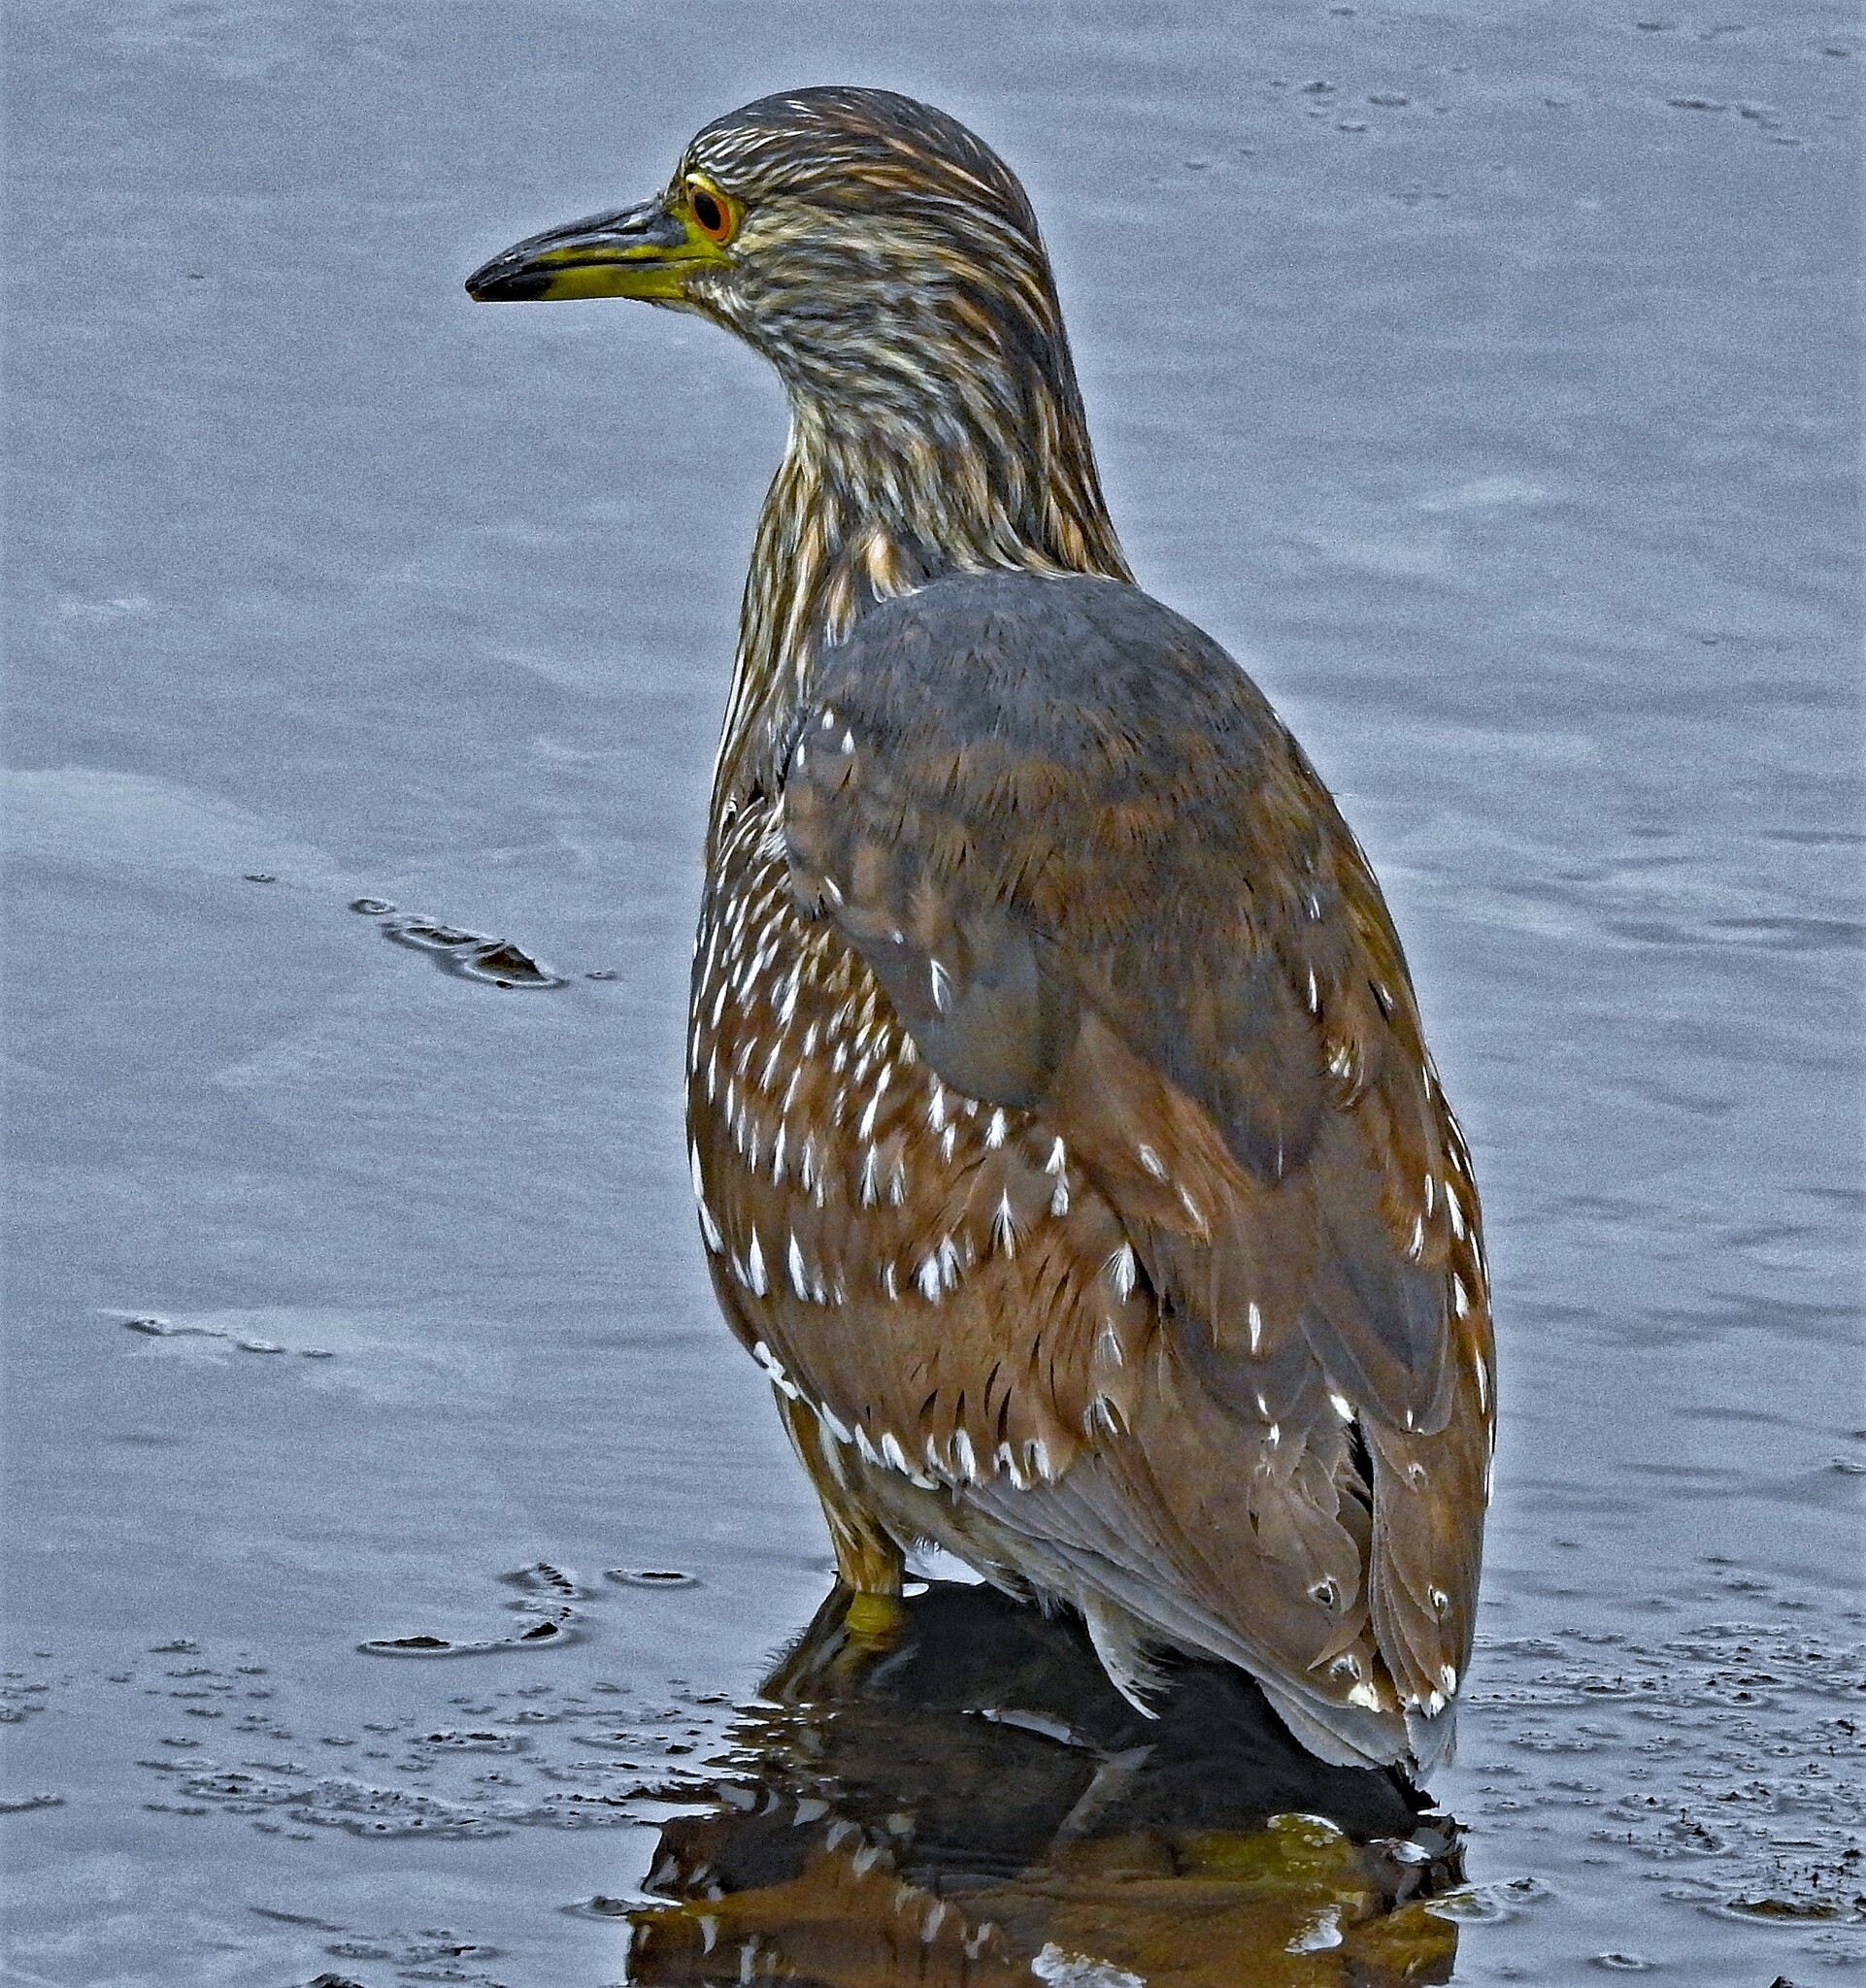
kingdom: Animalia
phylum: Chordata
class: Aves
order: Pelecaniformes
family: Ardeidae
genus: Nycticorax
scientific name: Nycticorax nycticorax
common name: Black-crowned night heron
